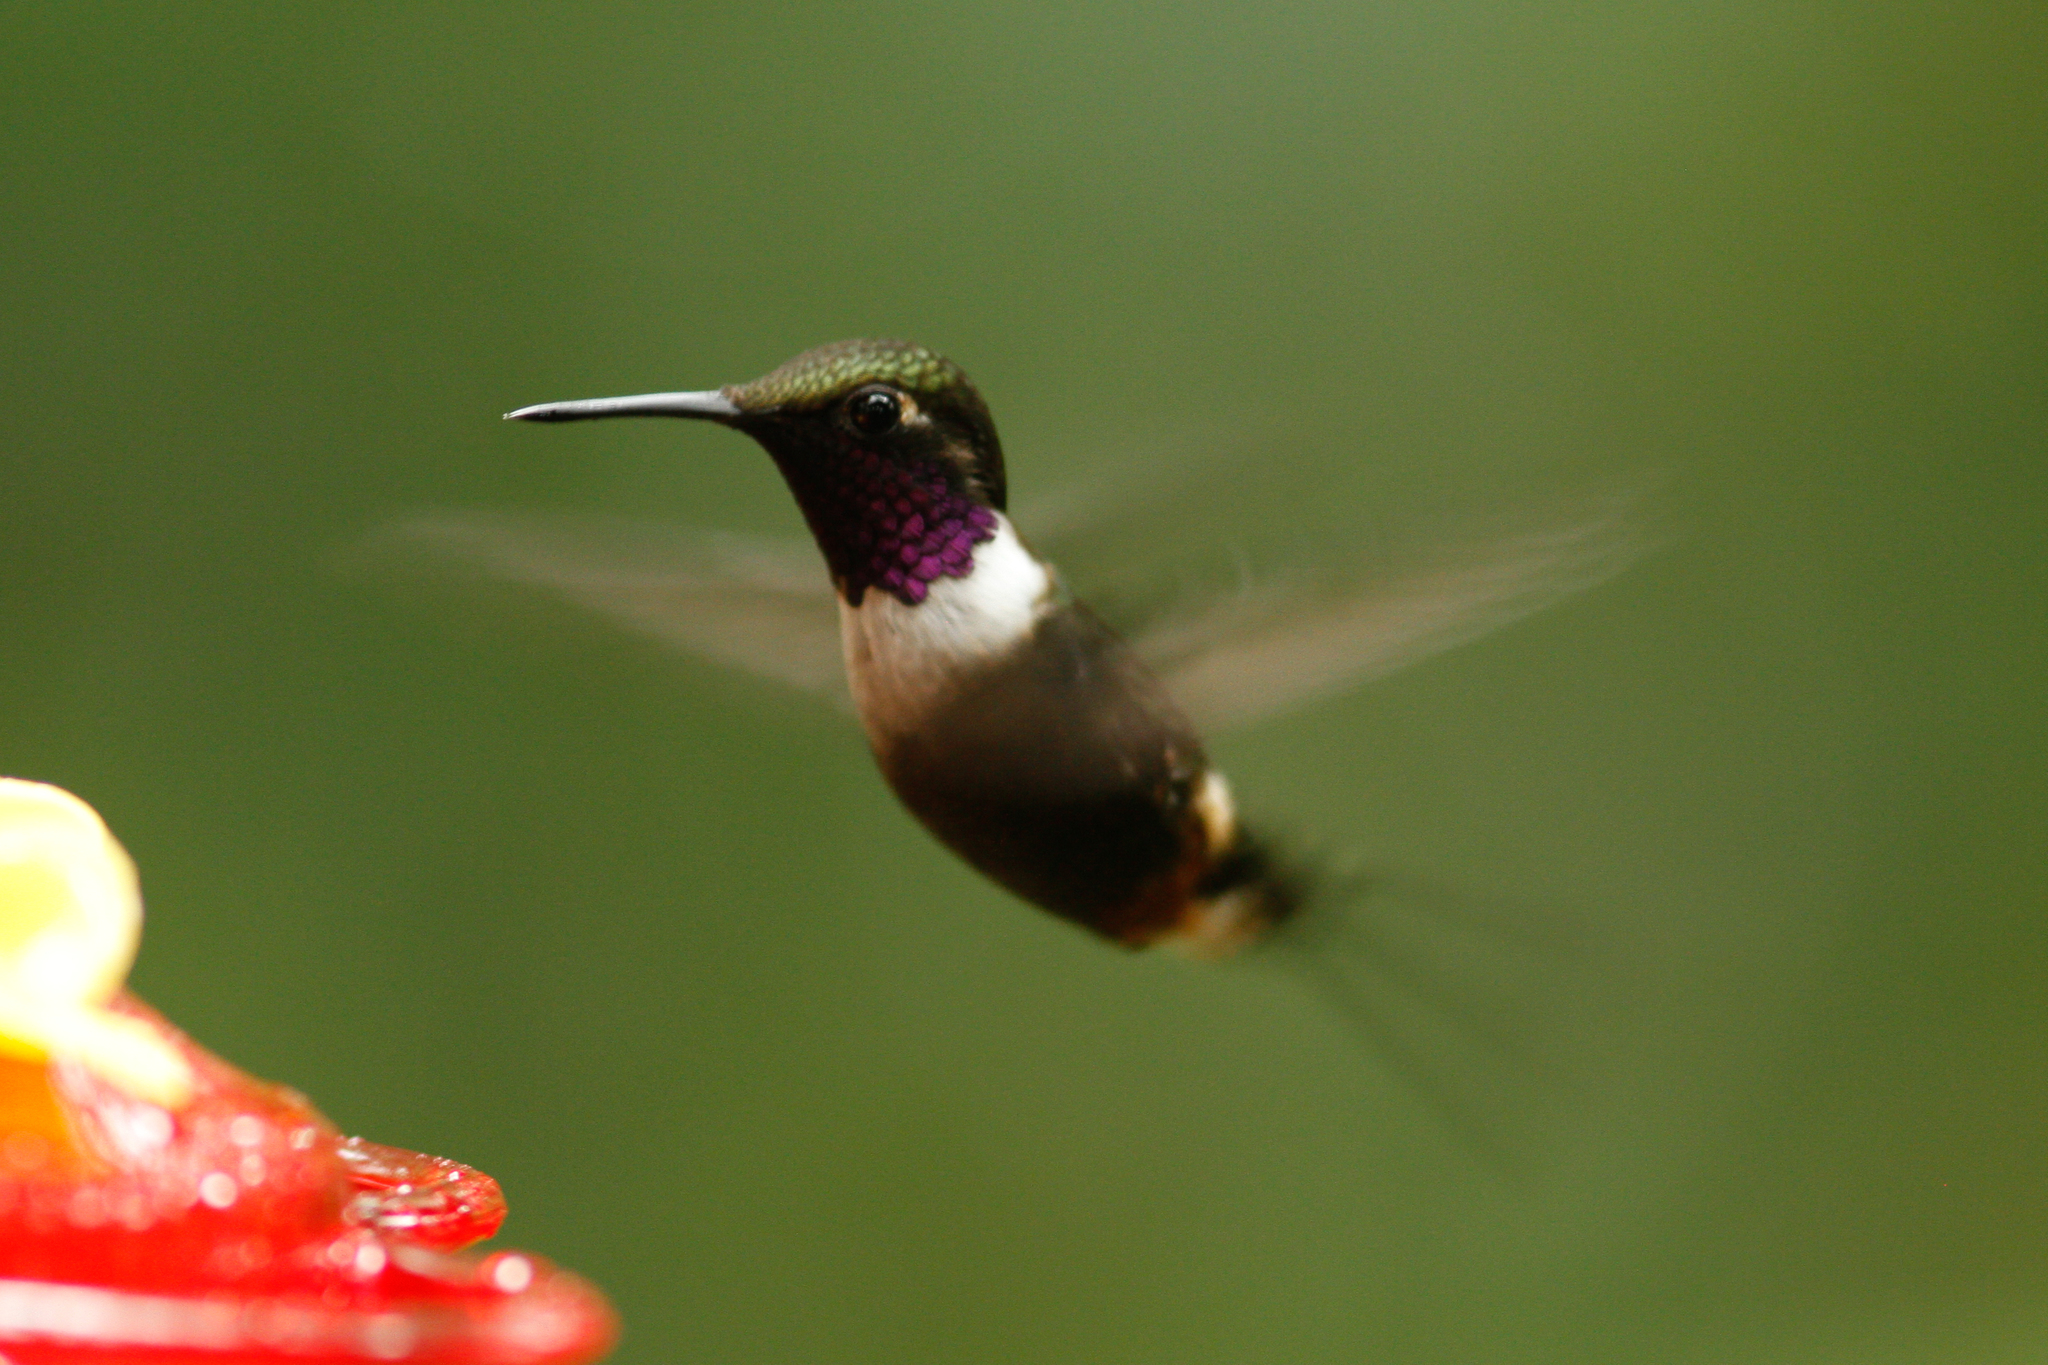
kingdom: Animalia
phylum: Chordata
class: Aves
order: Apodiformes
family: Trochilidae
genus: Calliphlox
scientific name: Calliphlox mitchellii
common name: Purple-throated woodstar
